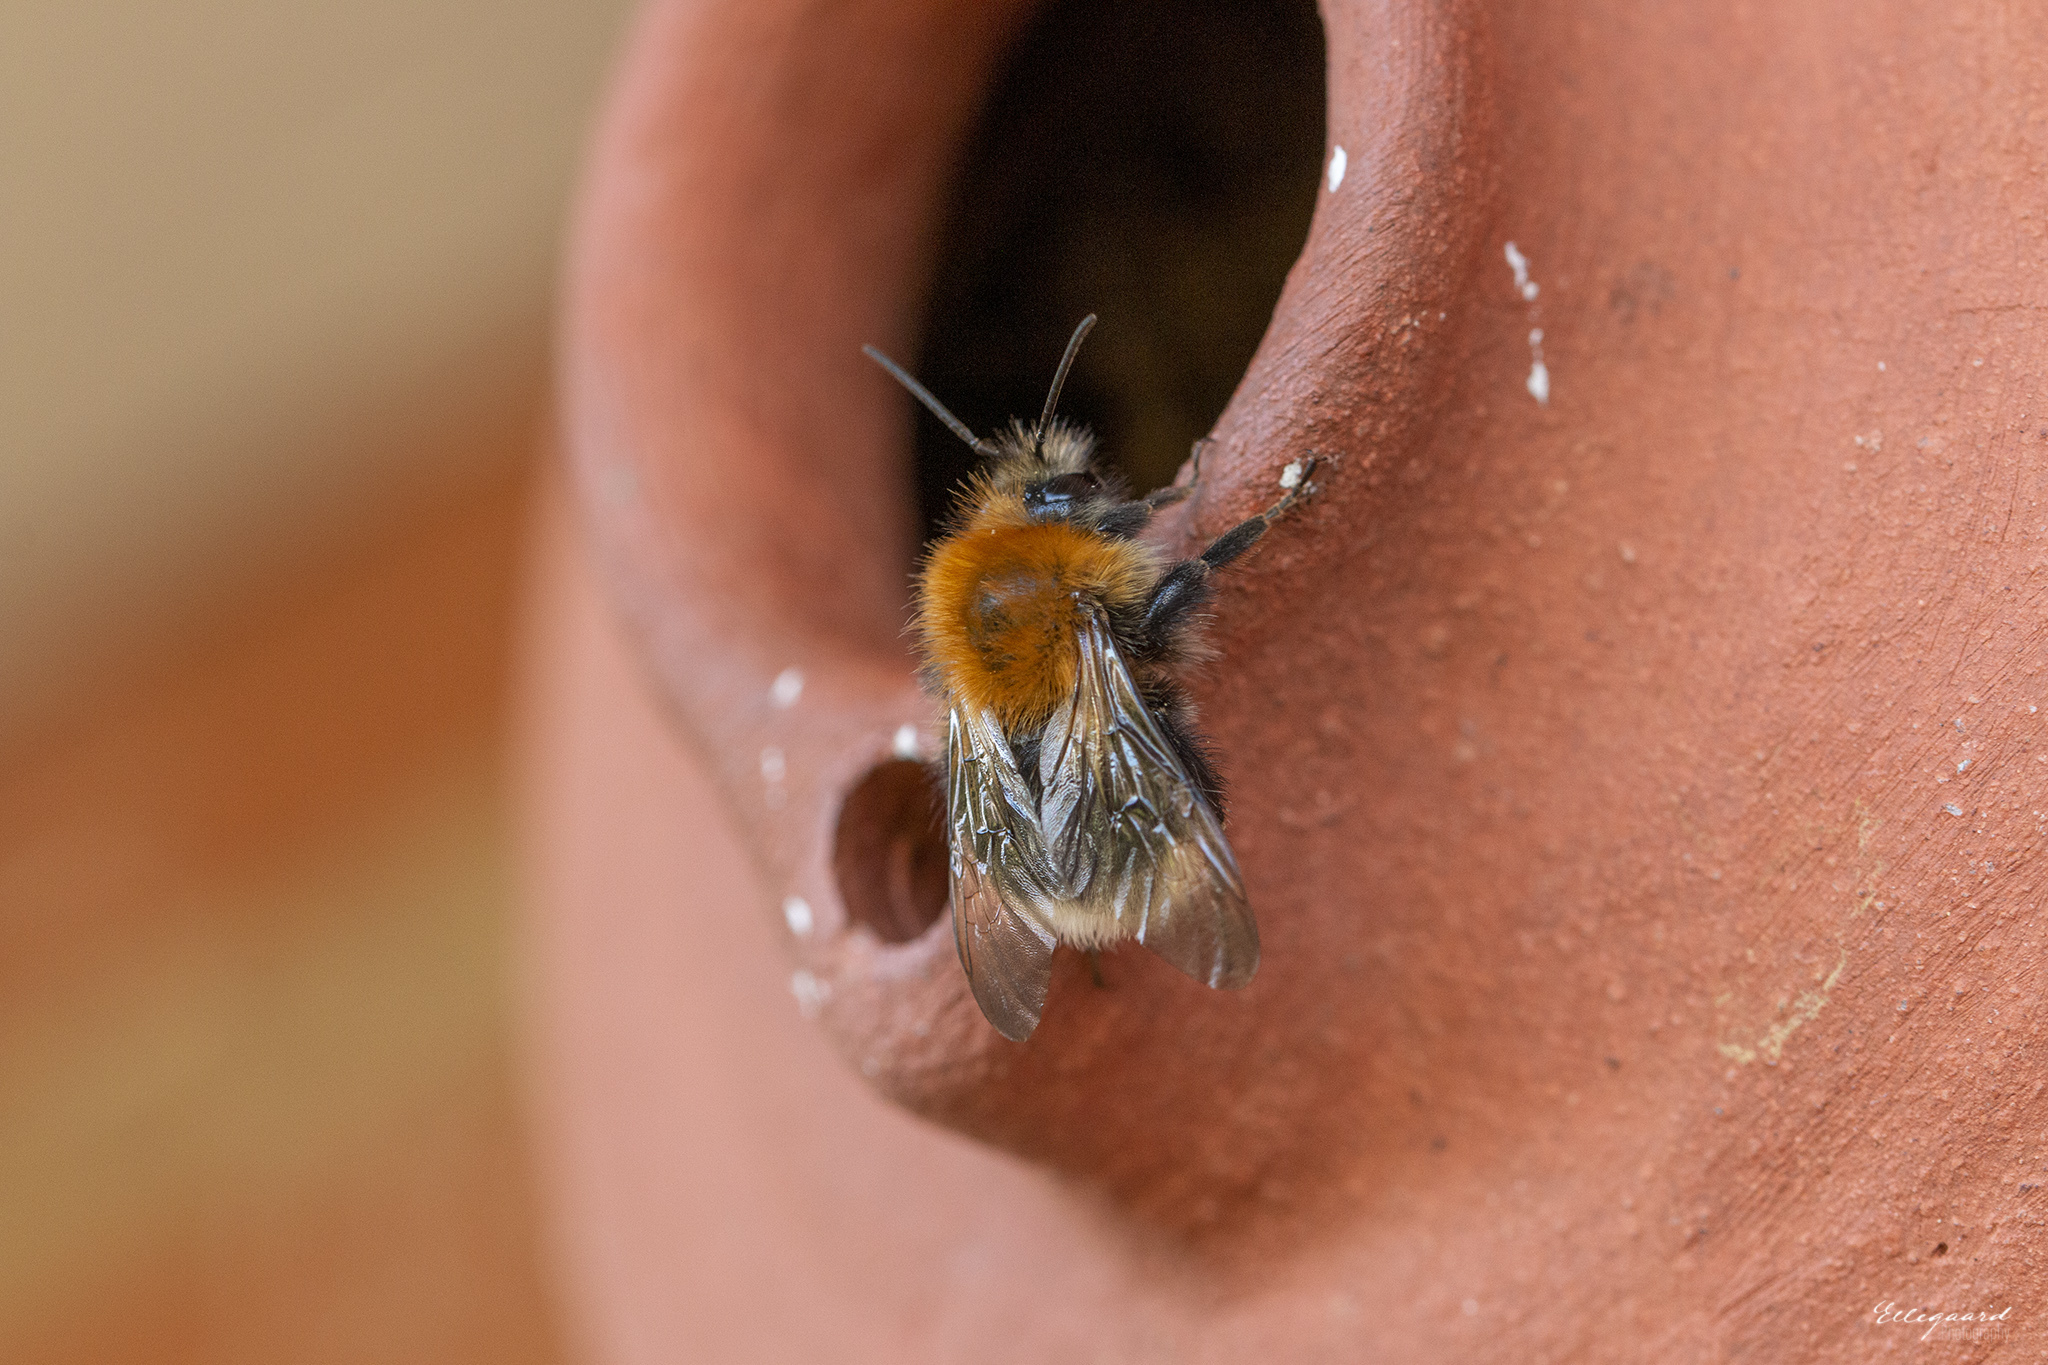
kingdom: Animalia
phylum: Arthropoda
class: Insecta
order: Hymenoptera
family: Apidae
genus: Bombus
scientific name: Bombus hypnorum
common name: New garden bumblebee
